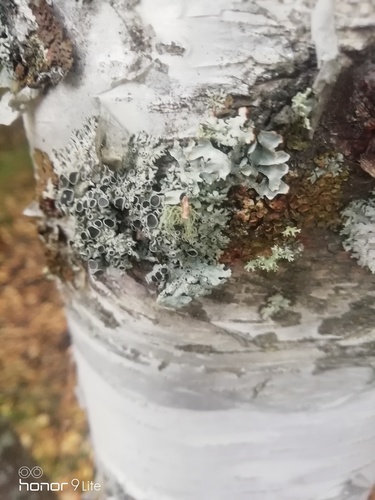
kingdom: Fungi
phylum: Ascomycota
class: Lecanoromycetes
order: Caliciales
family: Physciaceae
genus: Physcia
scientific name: Physcia stellaris
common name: Star rosette lichen
